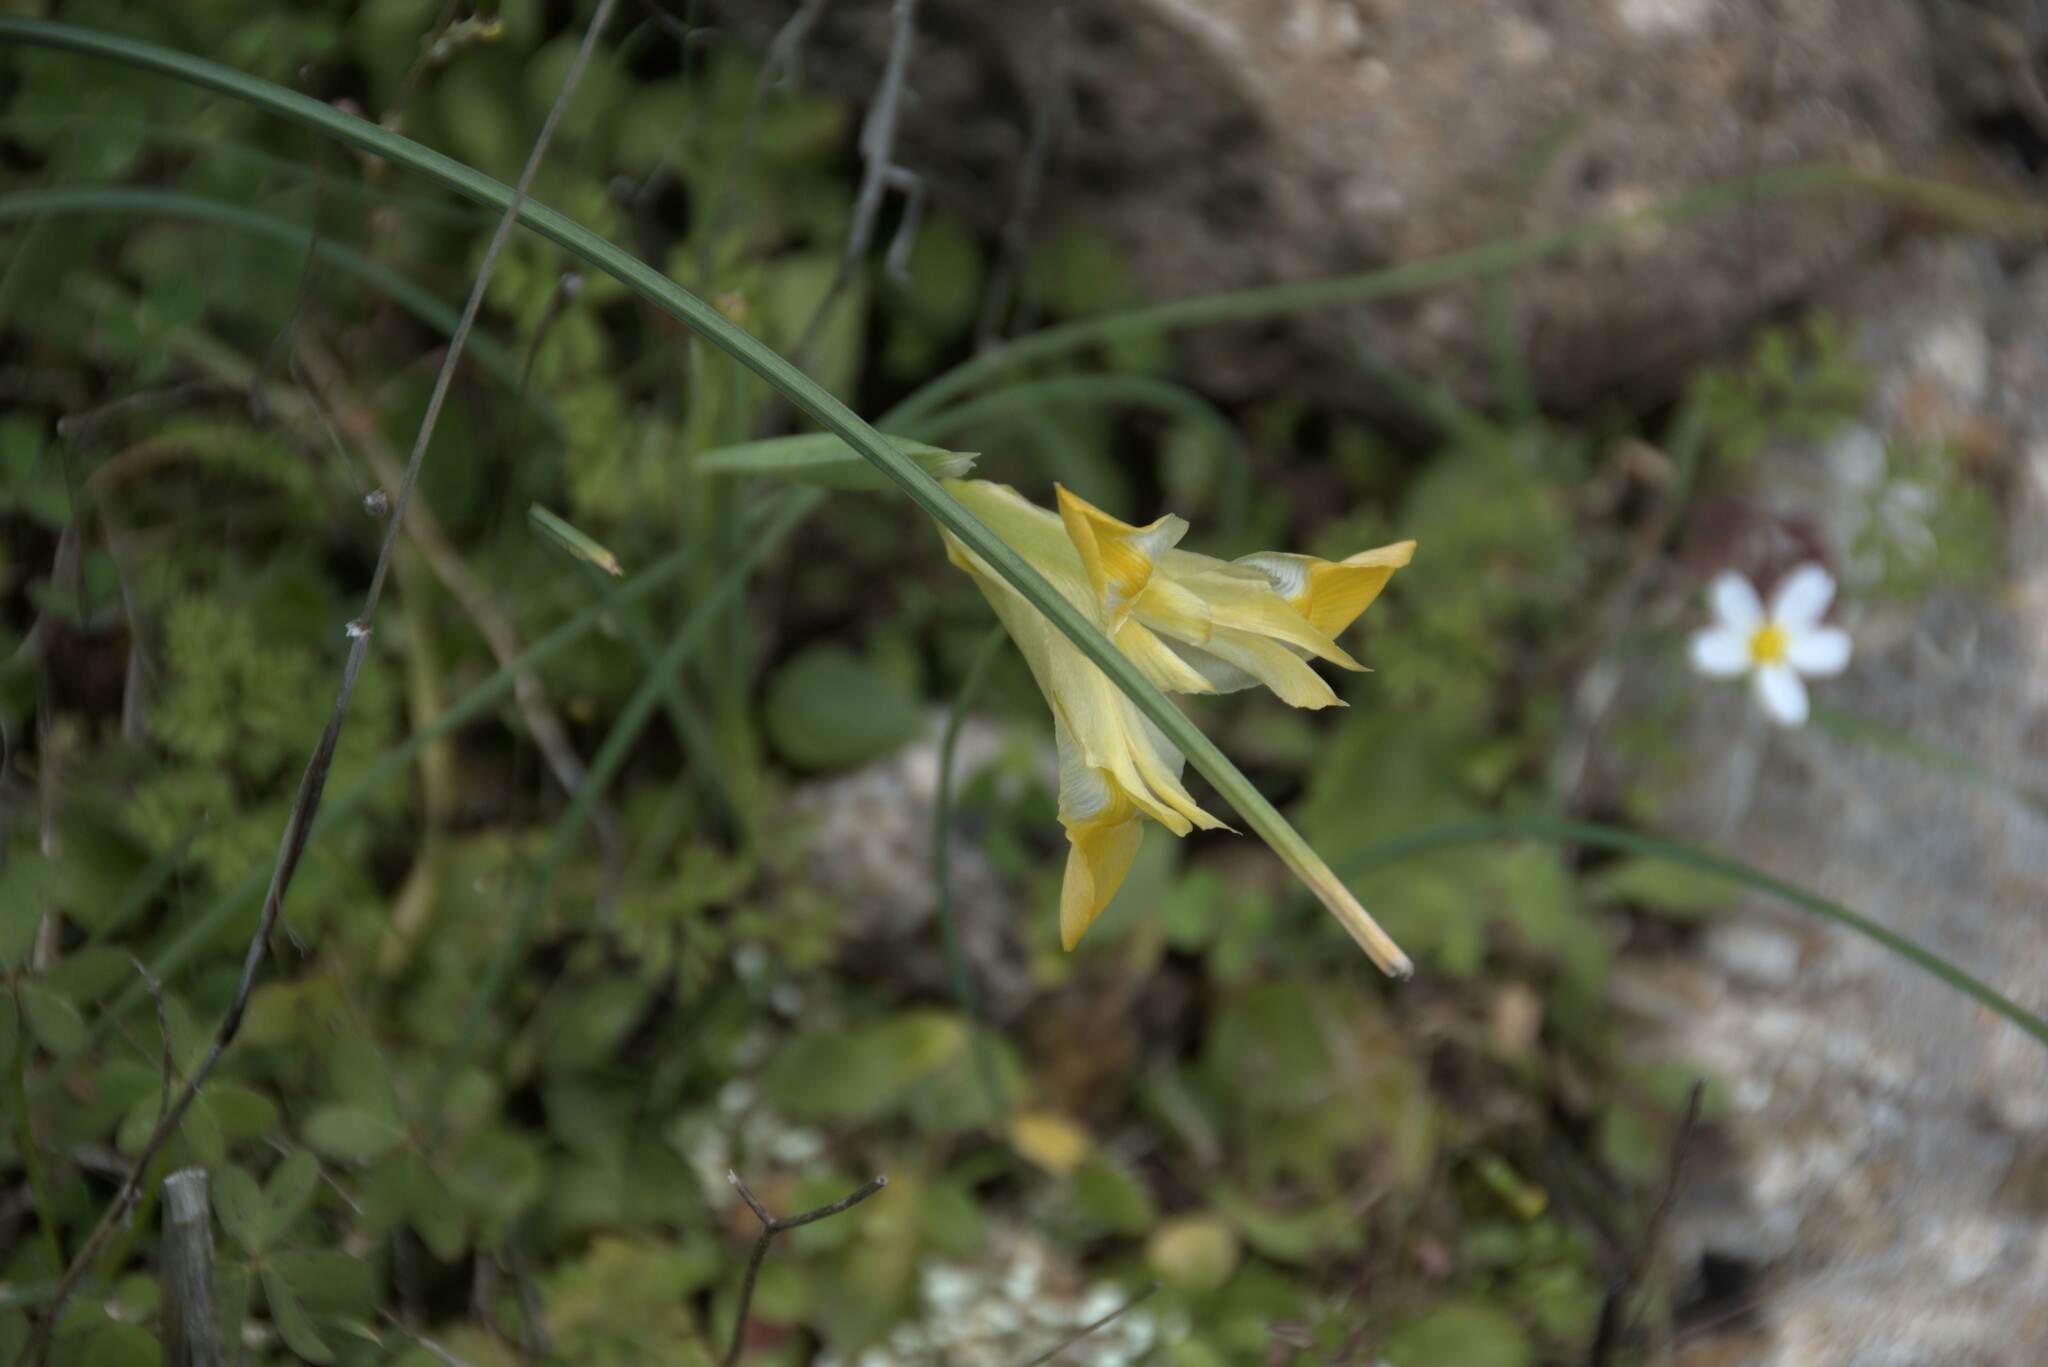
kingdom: Plantae
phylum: Tracheophyta
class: Liliopsida
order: Asparagales
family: Iridaceae
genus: Iris
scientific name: Iris tuberosa
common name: Snake's-head iris
